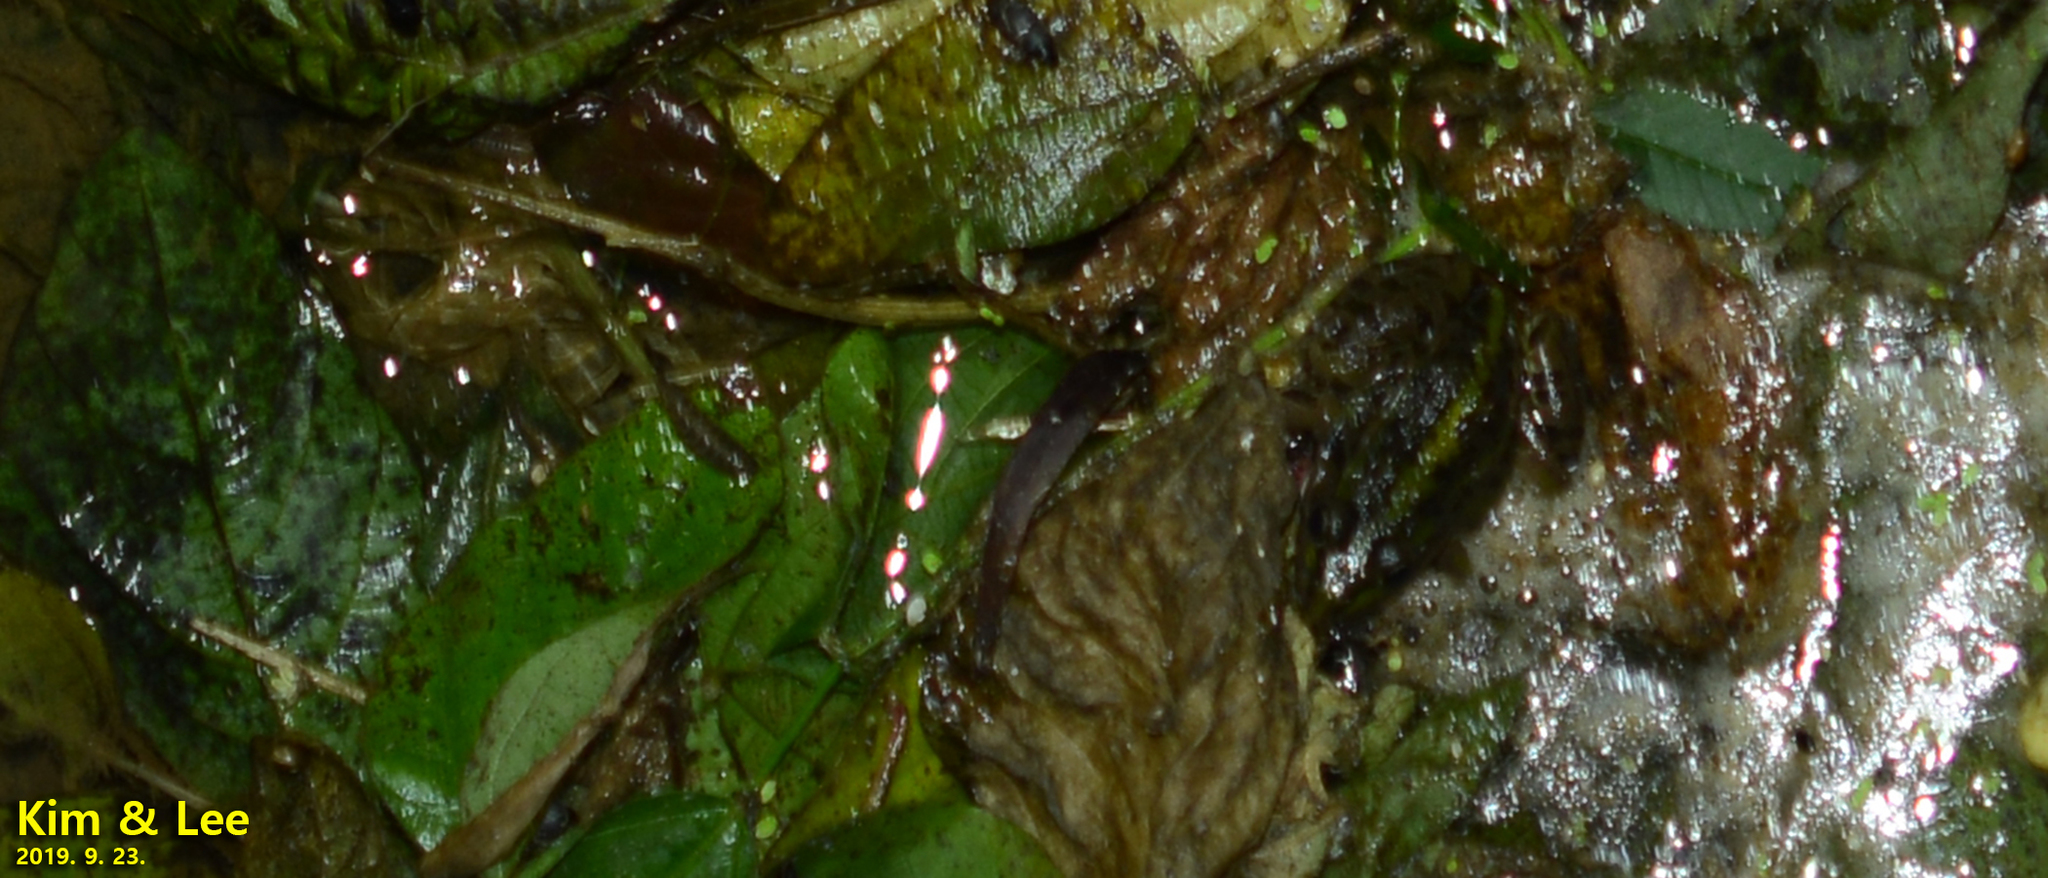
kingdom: Animalia
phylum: Chordata
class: Amphibia
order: Anura
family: Ranidae
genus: Pelophylax
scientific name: Pelophylax nigromaculatus
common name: Black-spotted pond frog
